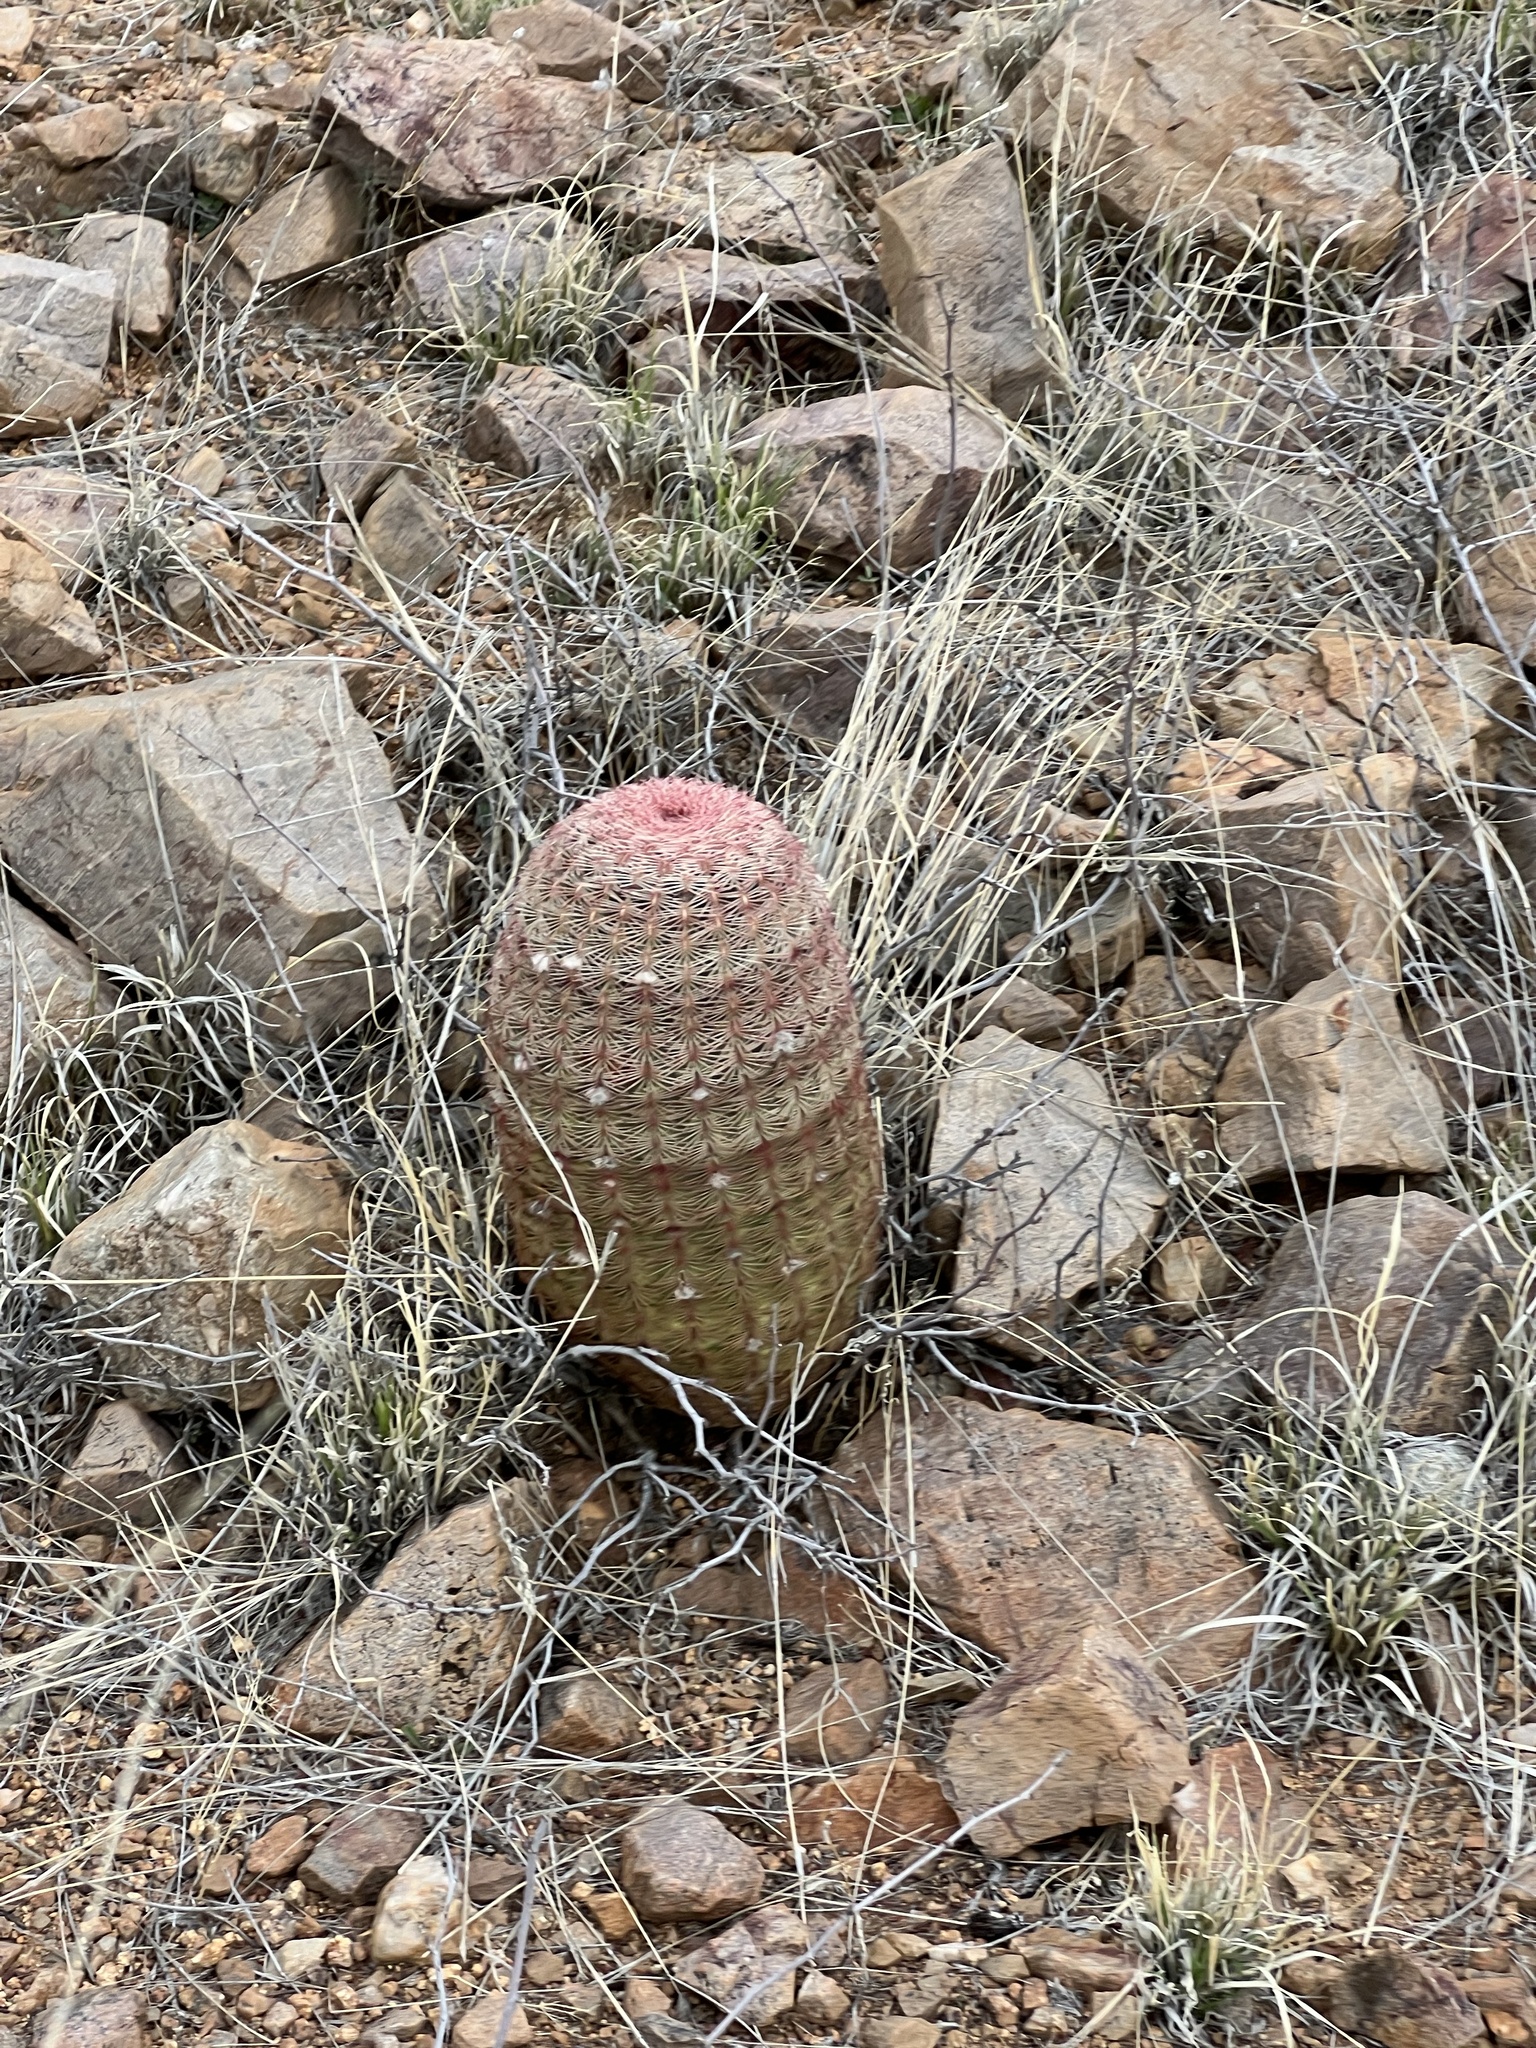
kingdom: Plantae
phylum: Tracheophyta
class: Magnoliopsida
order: Caryophyllales
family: Cactaceae
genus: Echinocereus
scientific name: Echinocereus rigidissimus
